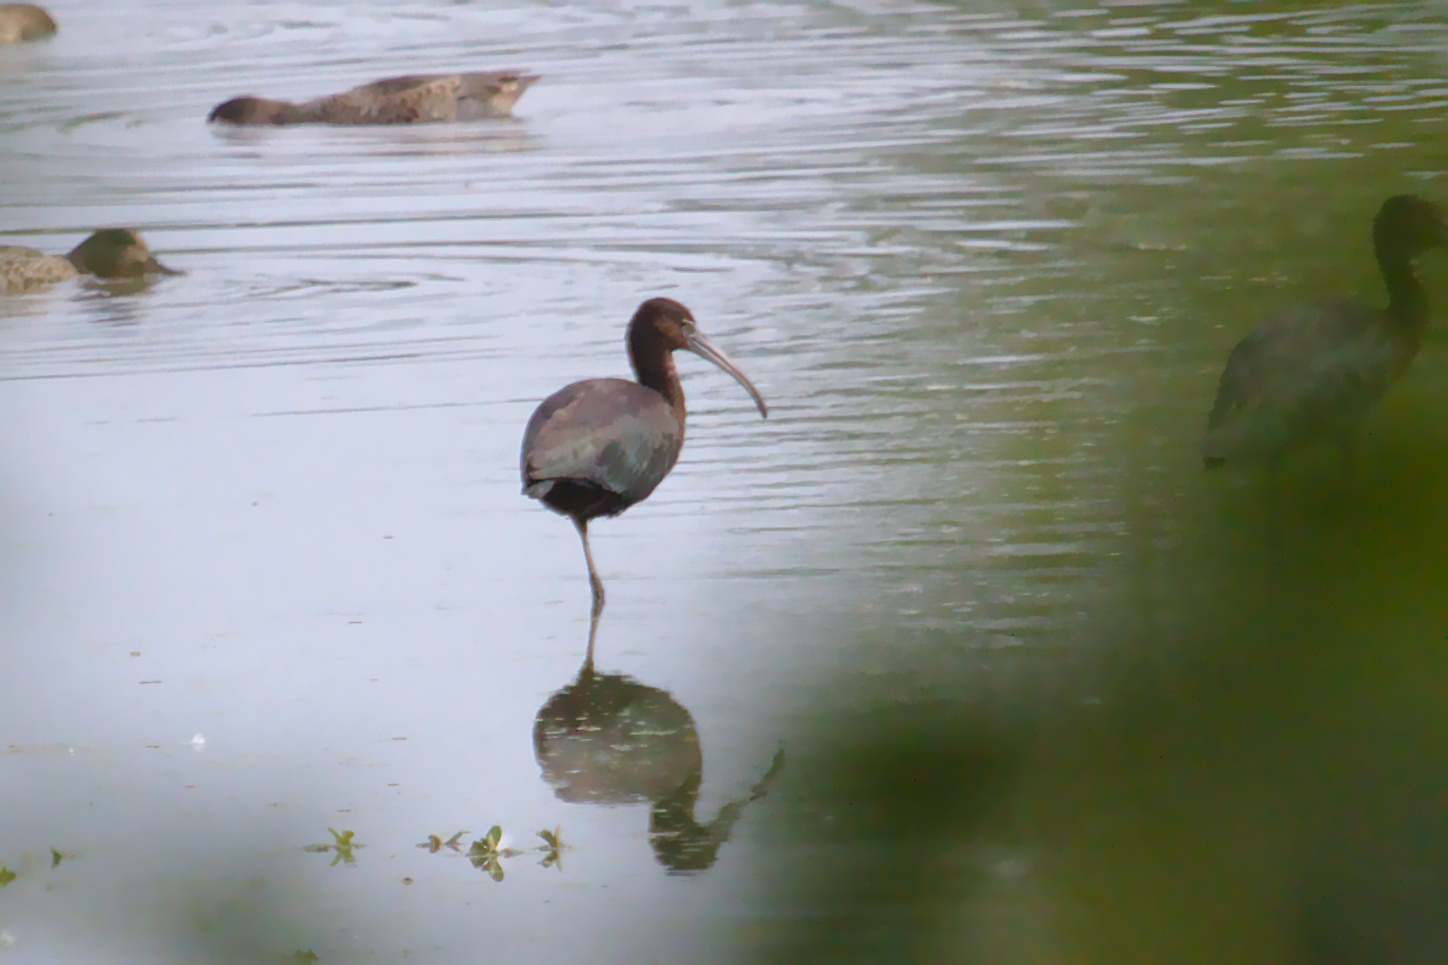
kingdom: Animalia
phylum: Chordata
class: Aves
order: Pelecaniformes
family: Threskiornithidae
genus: Plegadis
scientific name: Plegadis falcinellus
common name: Glossy ibis
